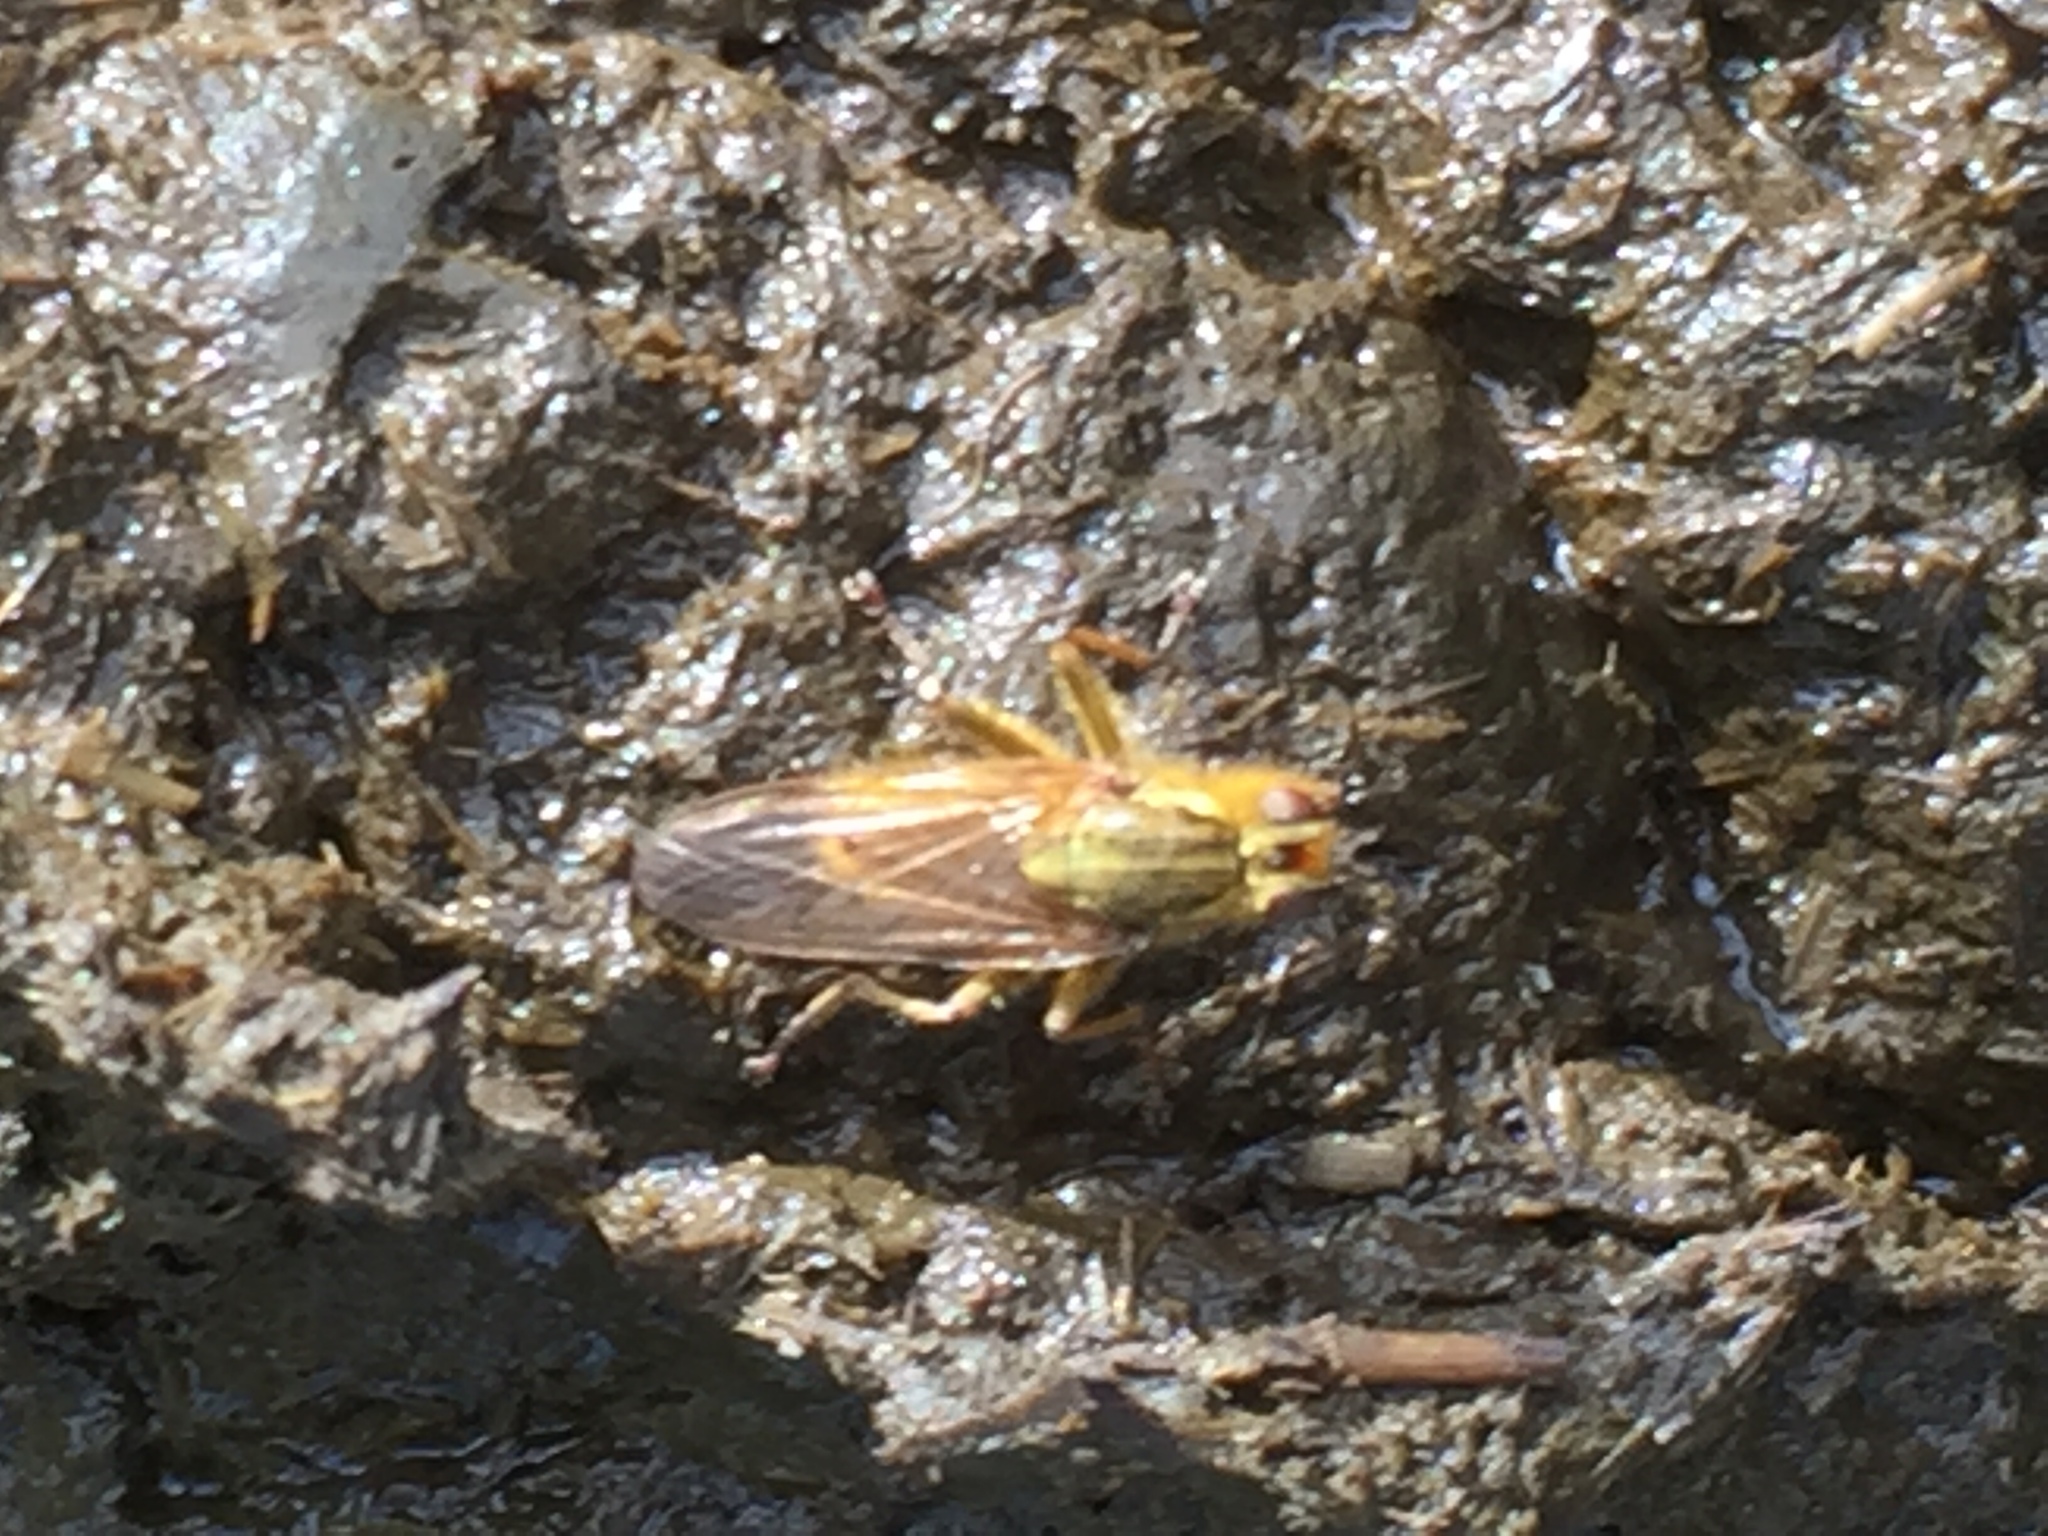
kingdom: Animalia
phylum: Arthropoda
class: Insecta
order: Diptera
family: Scathophagidae
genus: Scathophaga
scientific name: Scathophaga stercoraria
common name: Yellow dung fly
